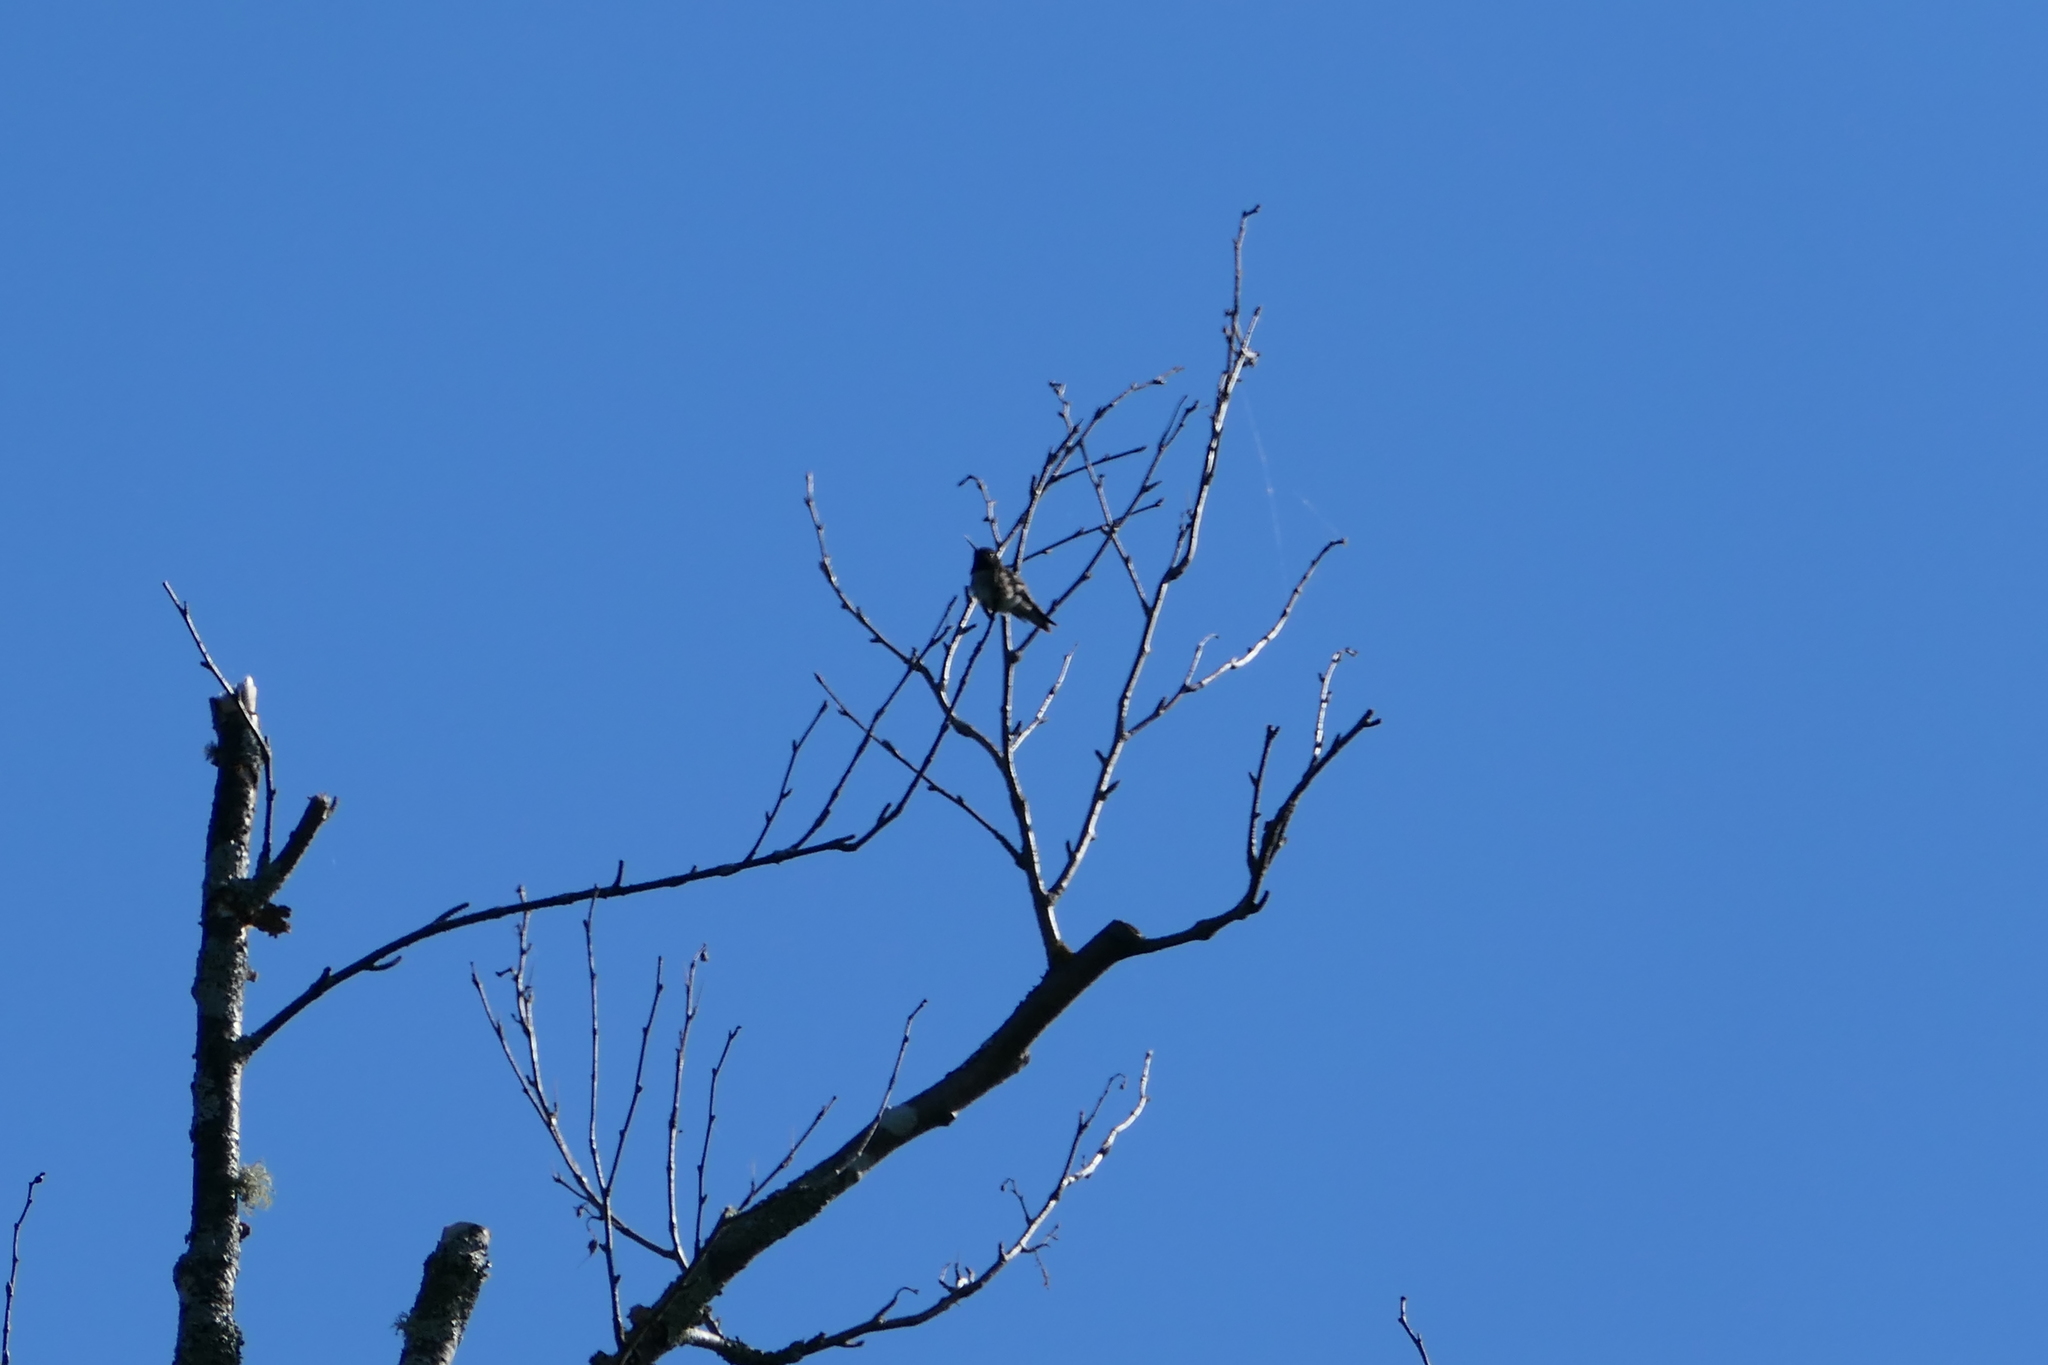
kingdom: Animalia
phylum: Chordata
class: Aves
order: Apodiformes
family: Trochilidae
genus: Archilochus
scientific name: Archilochus colubris
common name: Ruby-throated hummingbird
